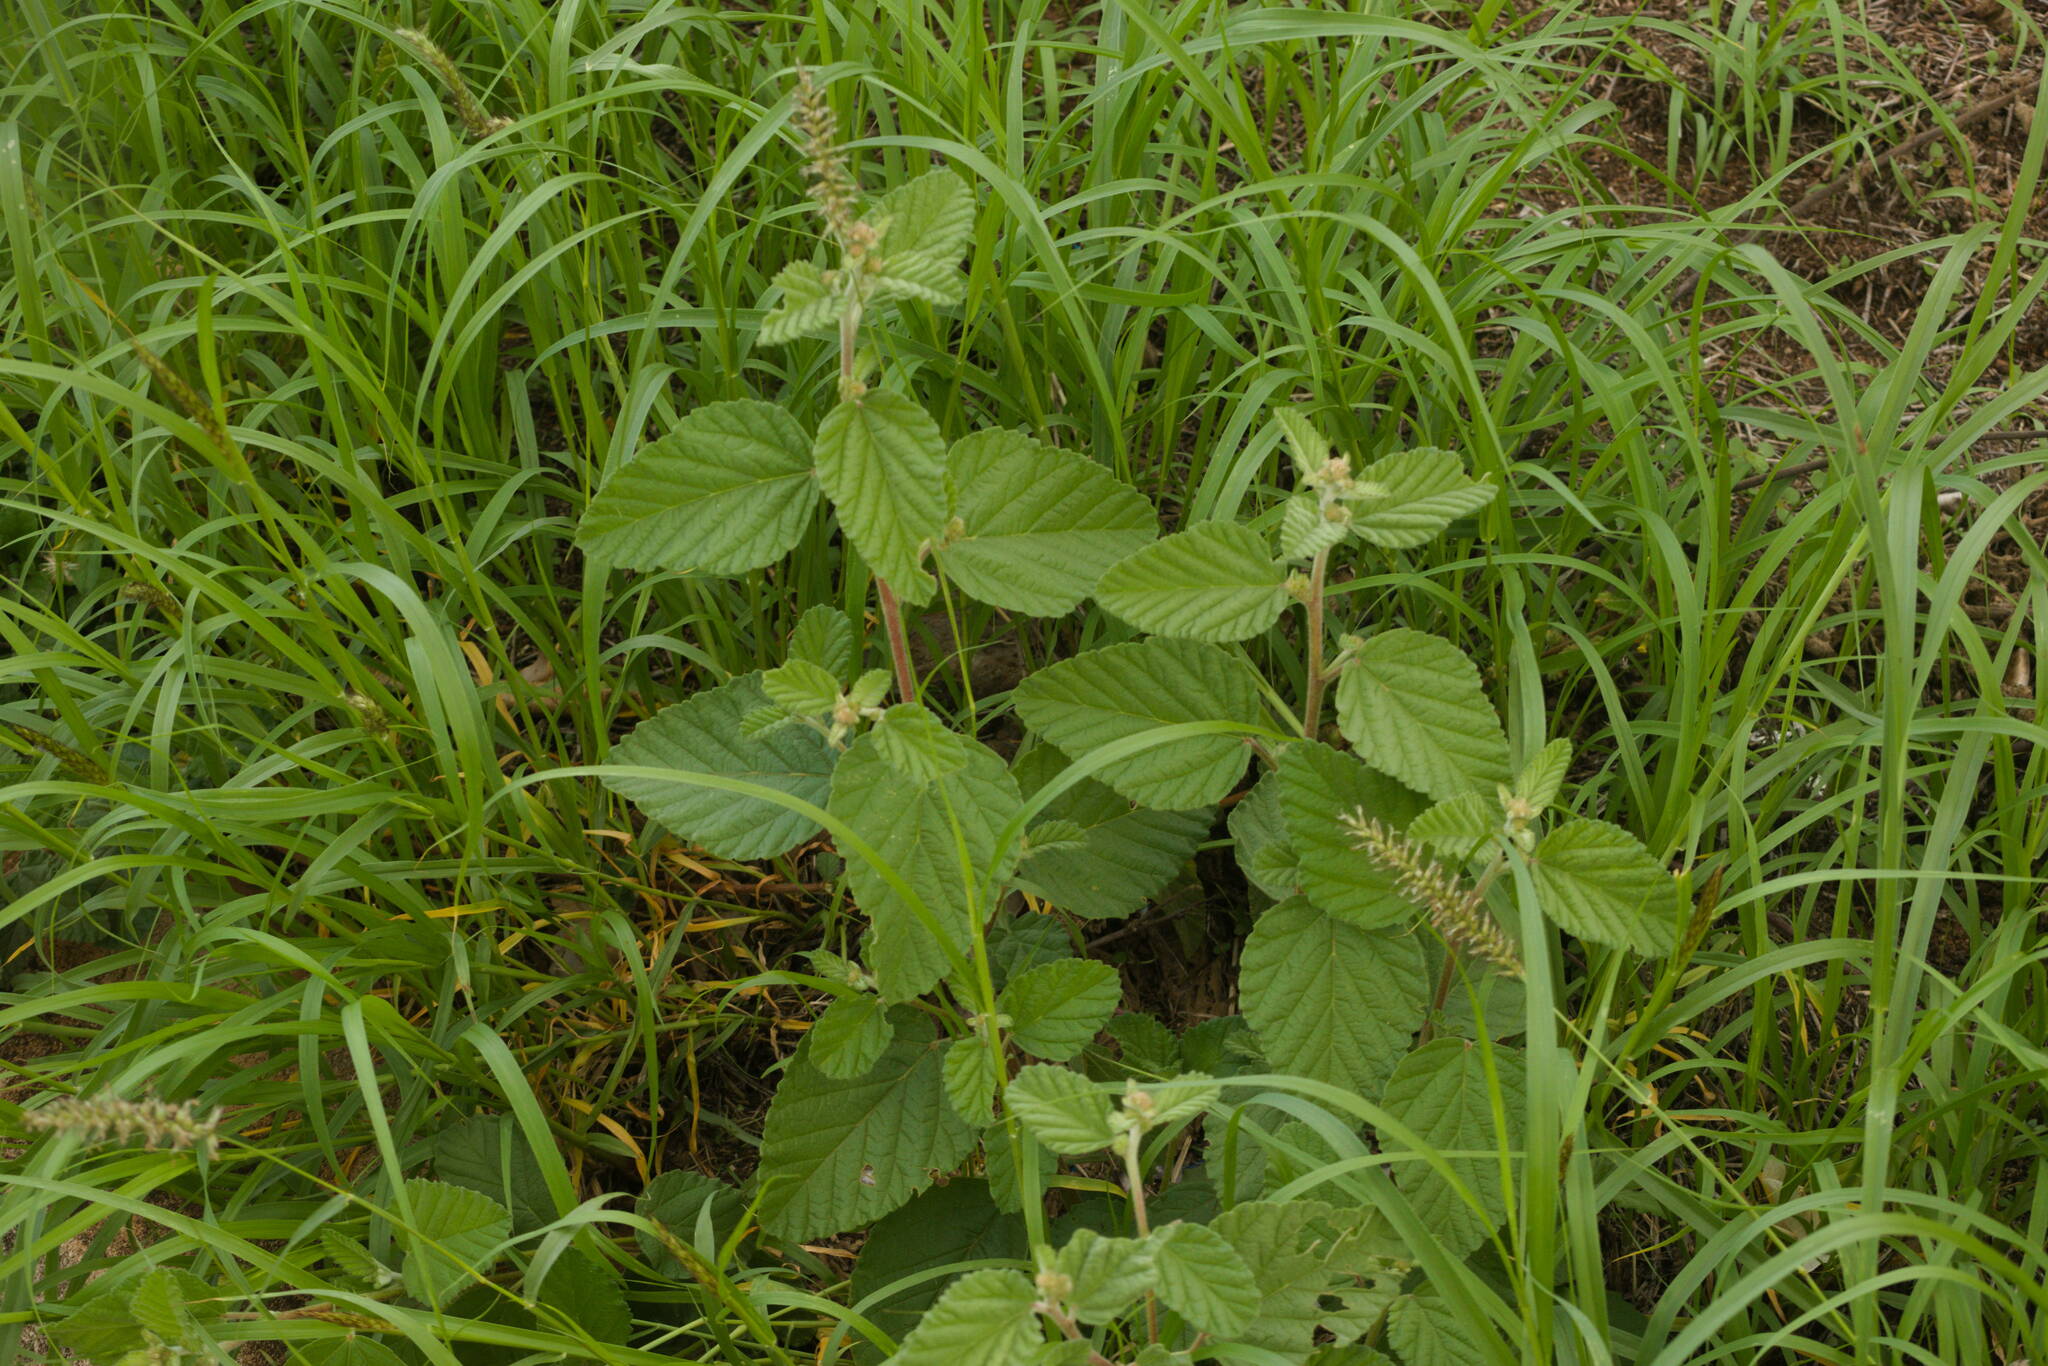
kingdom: Plantae
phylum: Tracheophyta
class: Magnoliopsida
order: Malvales
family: Malvaceae
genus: Waltheria
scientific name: Waltheria indica
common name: Leather-coat
